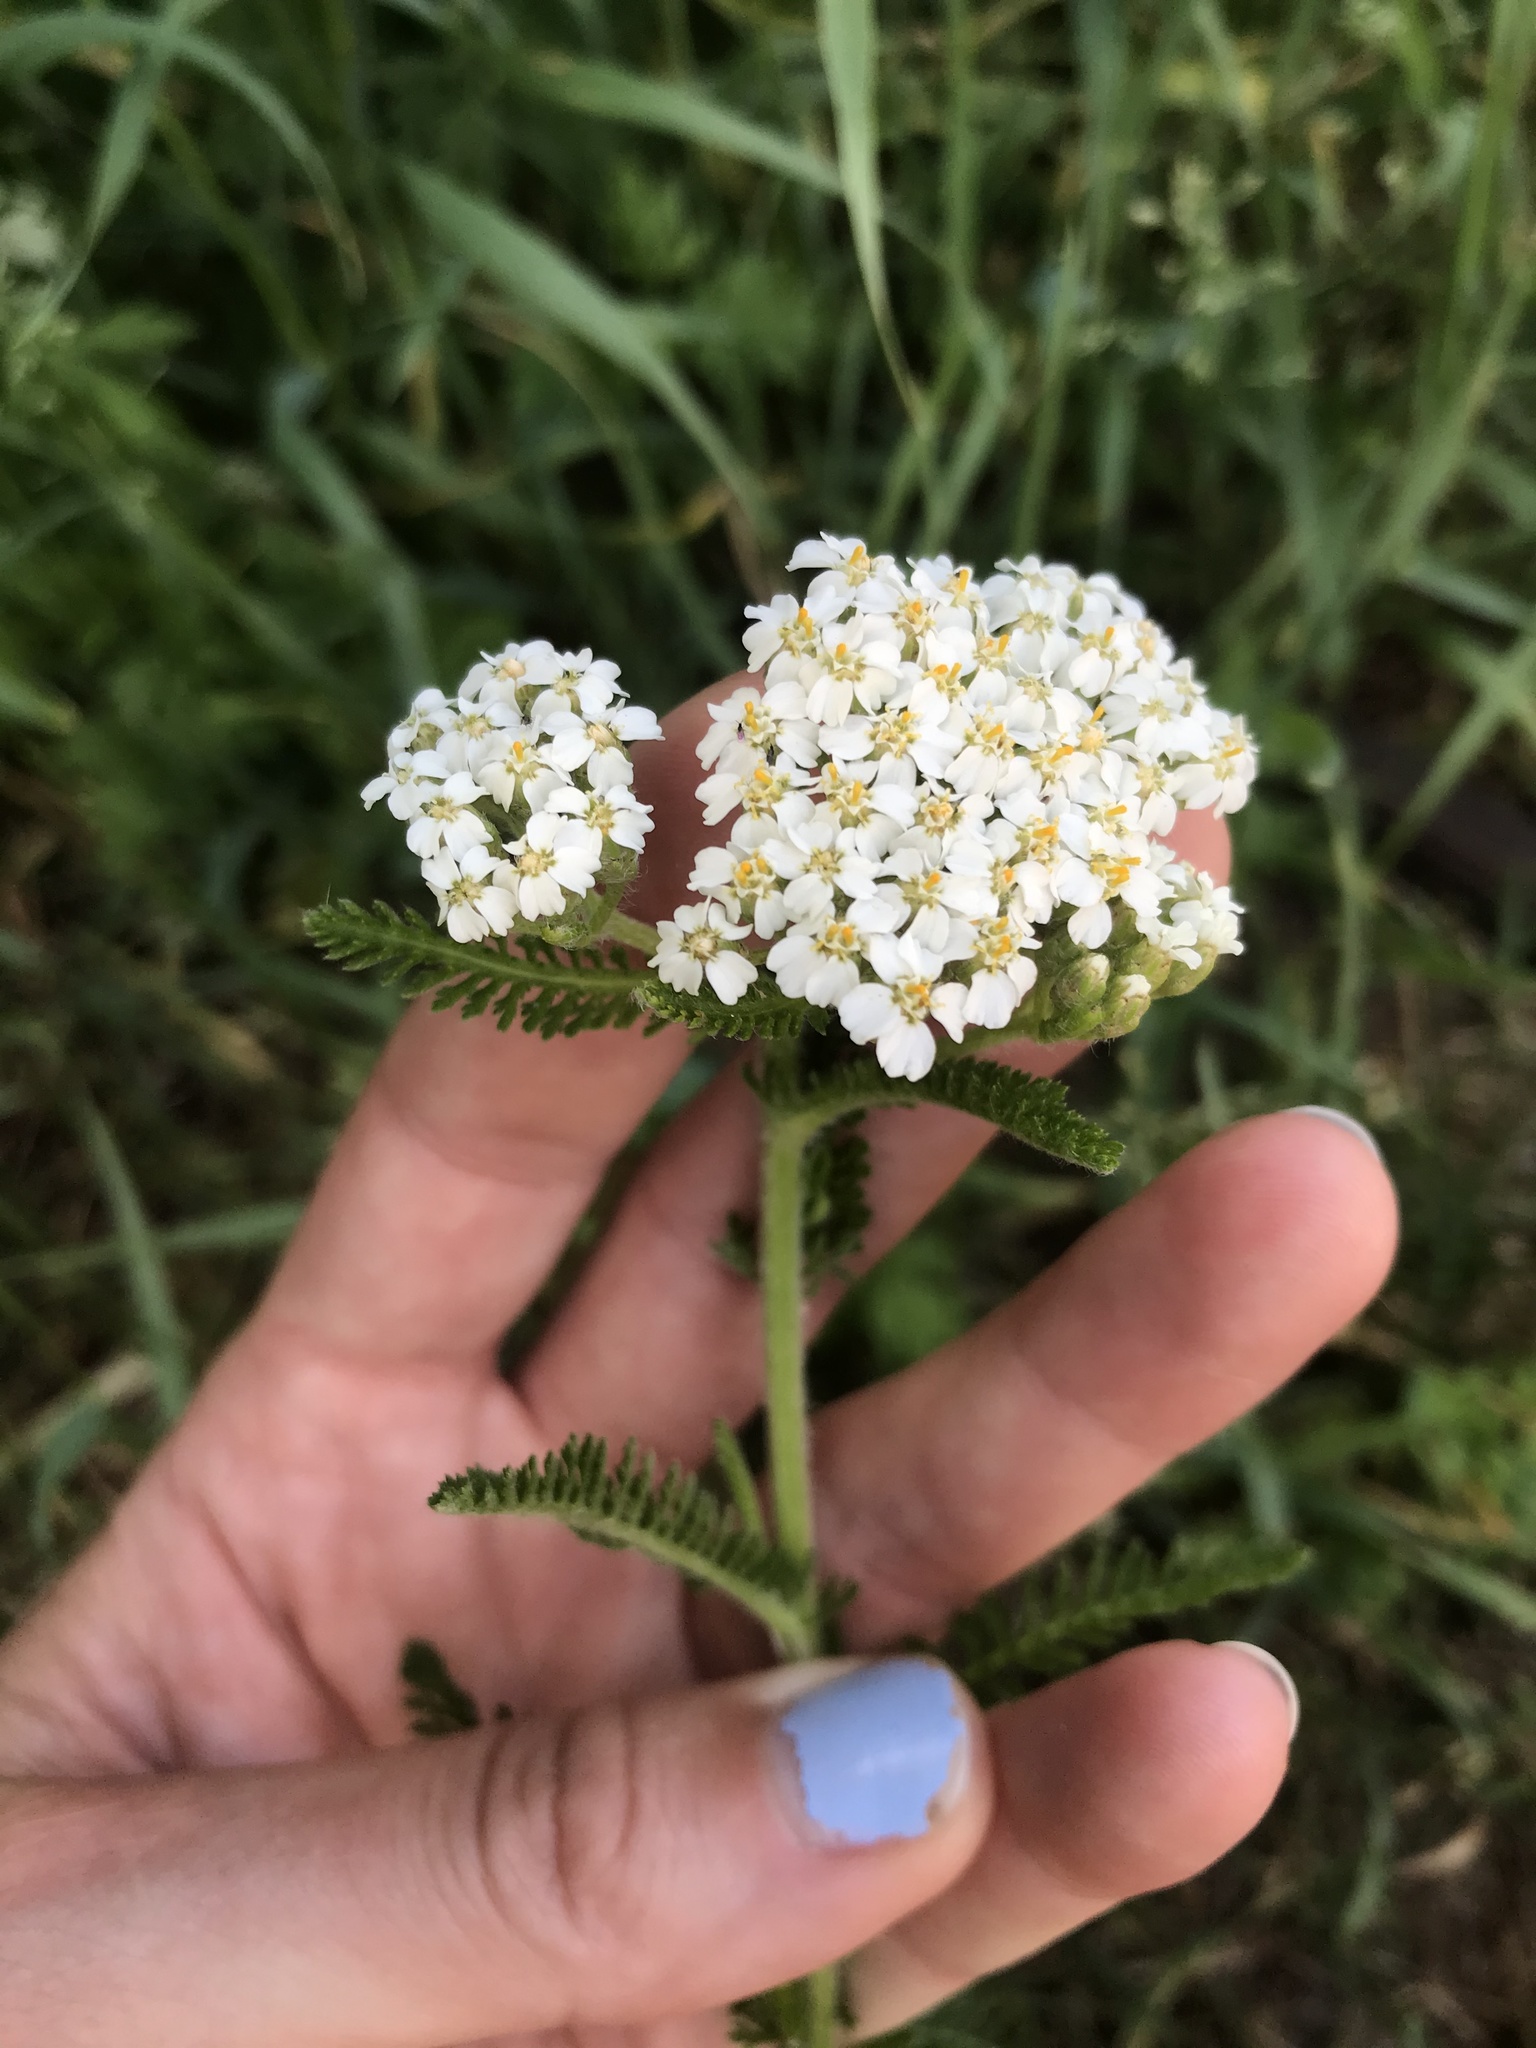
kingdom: Plantae
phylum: Tracheophyta
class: Magnoliopsida
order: Asterales
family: Asteraceae
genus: Achillea
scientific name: Achillea millefolium
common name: Yarrow
